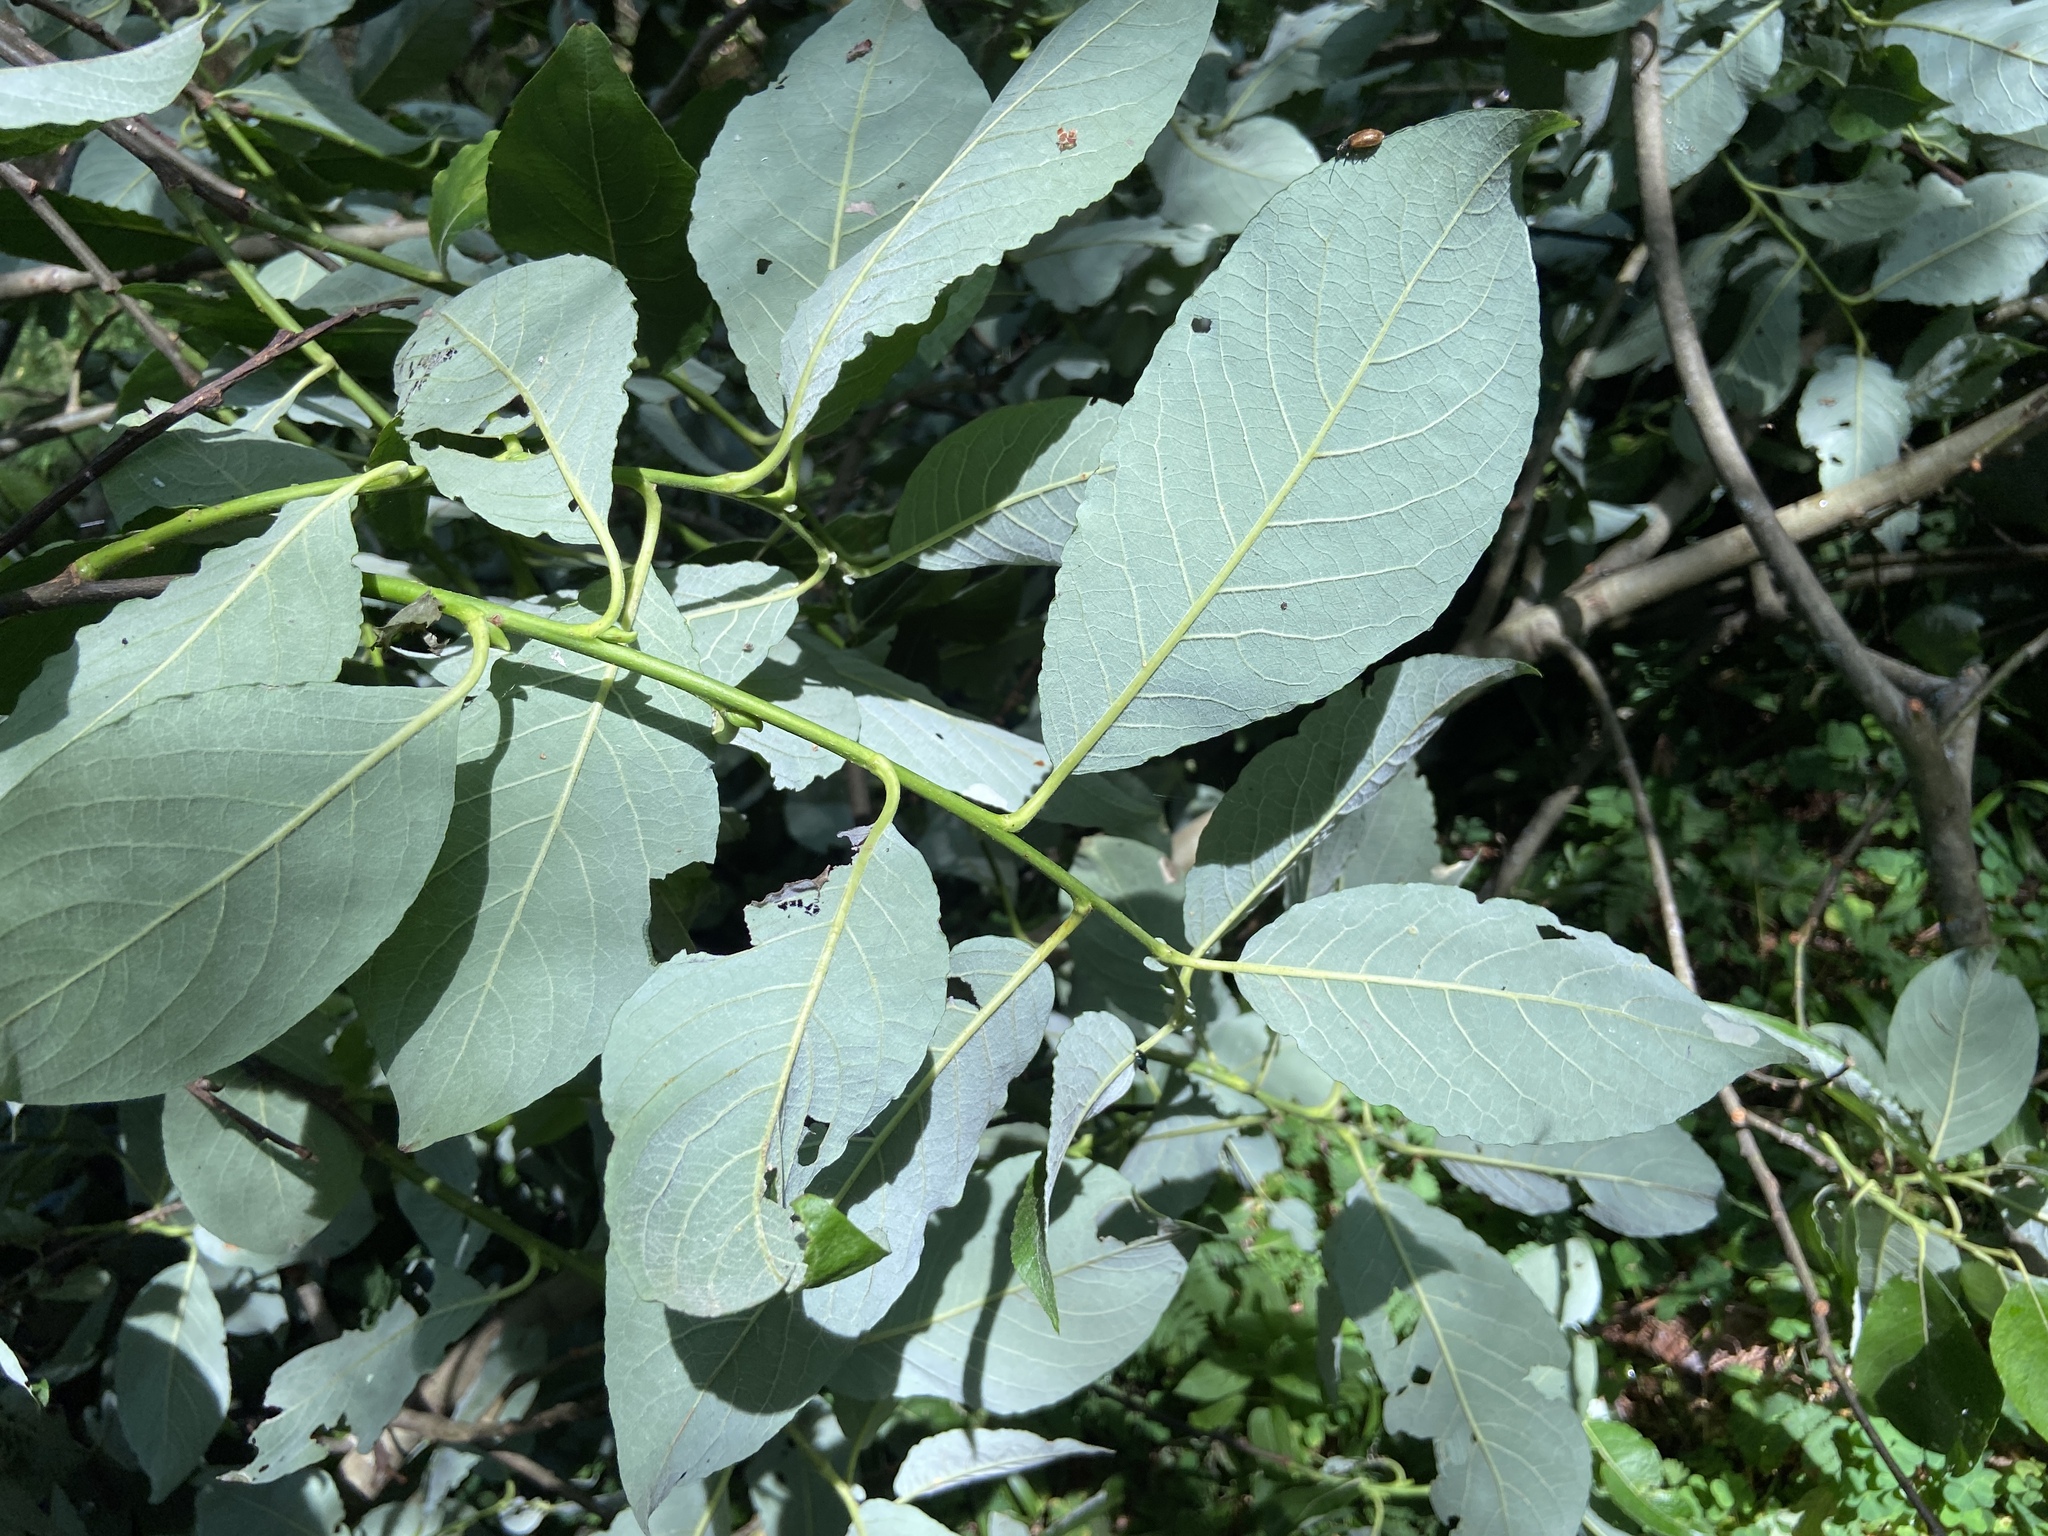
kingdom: Plantae
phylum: Tracheophyta
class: Magnoliopsida
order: Malpighiales
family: Salicaceae
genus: Salix
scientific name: Salix caprea
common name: Goat willow
